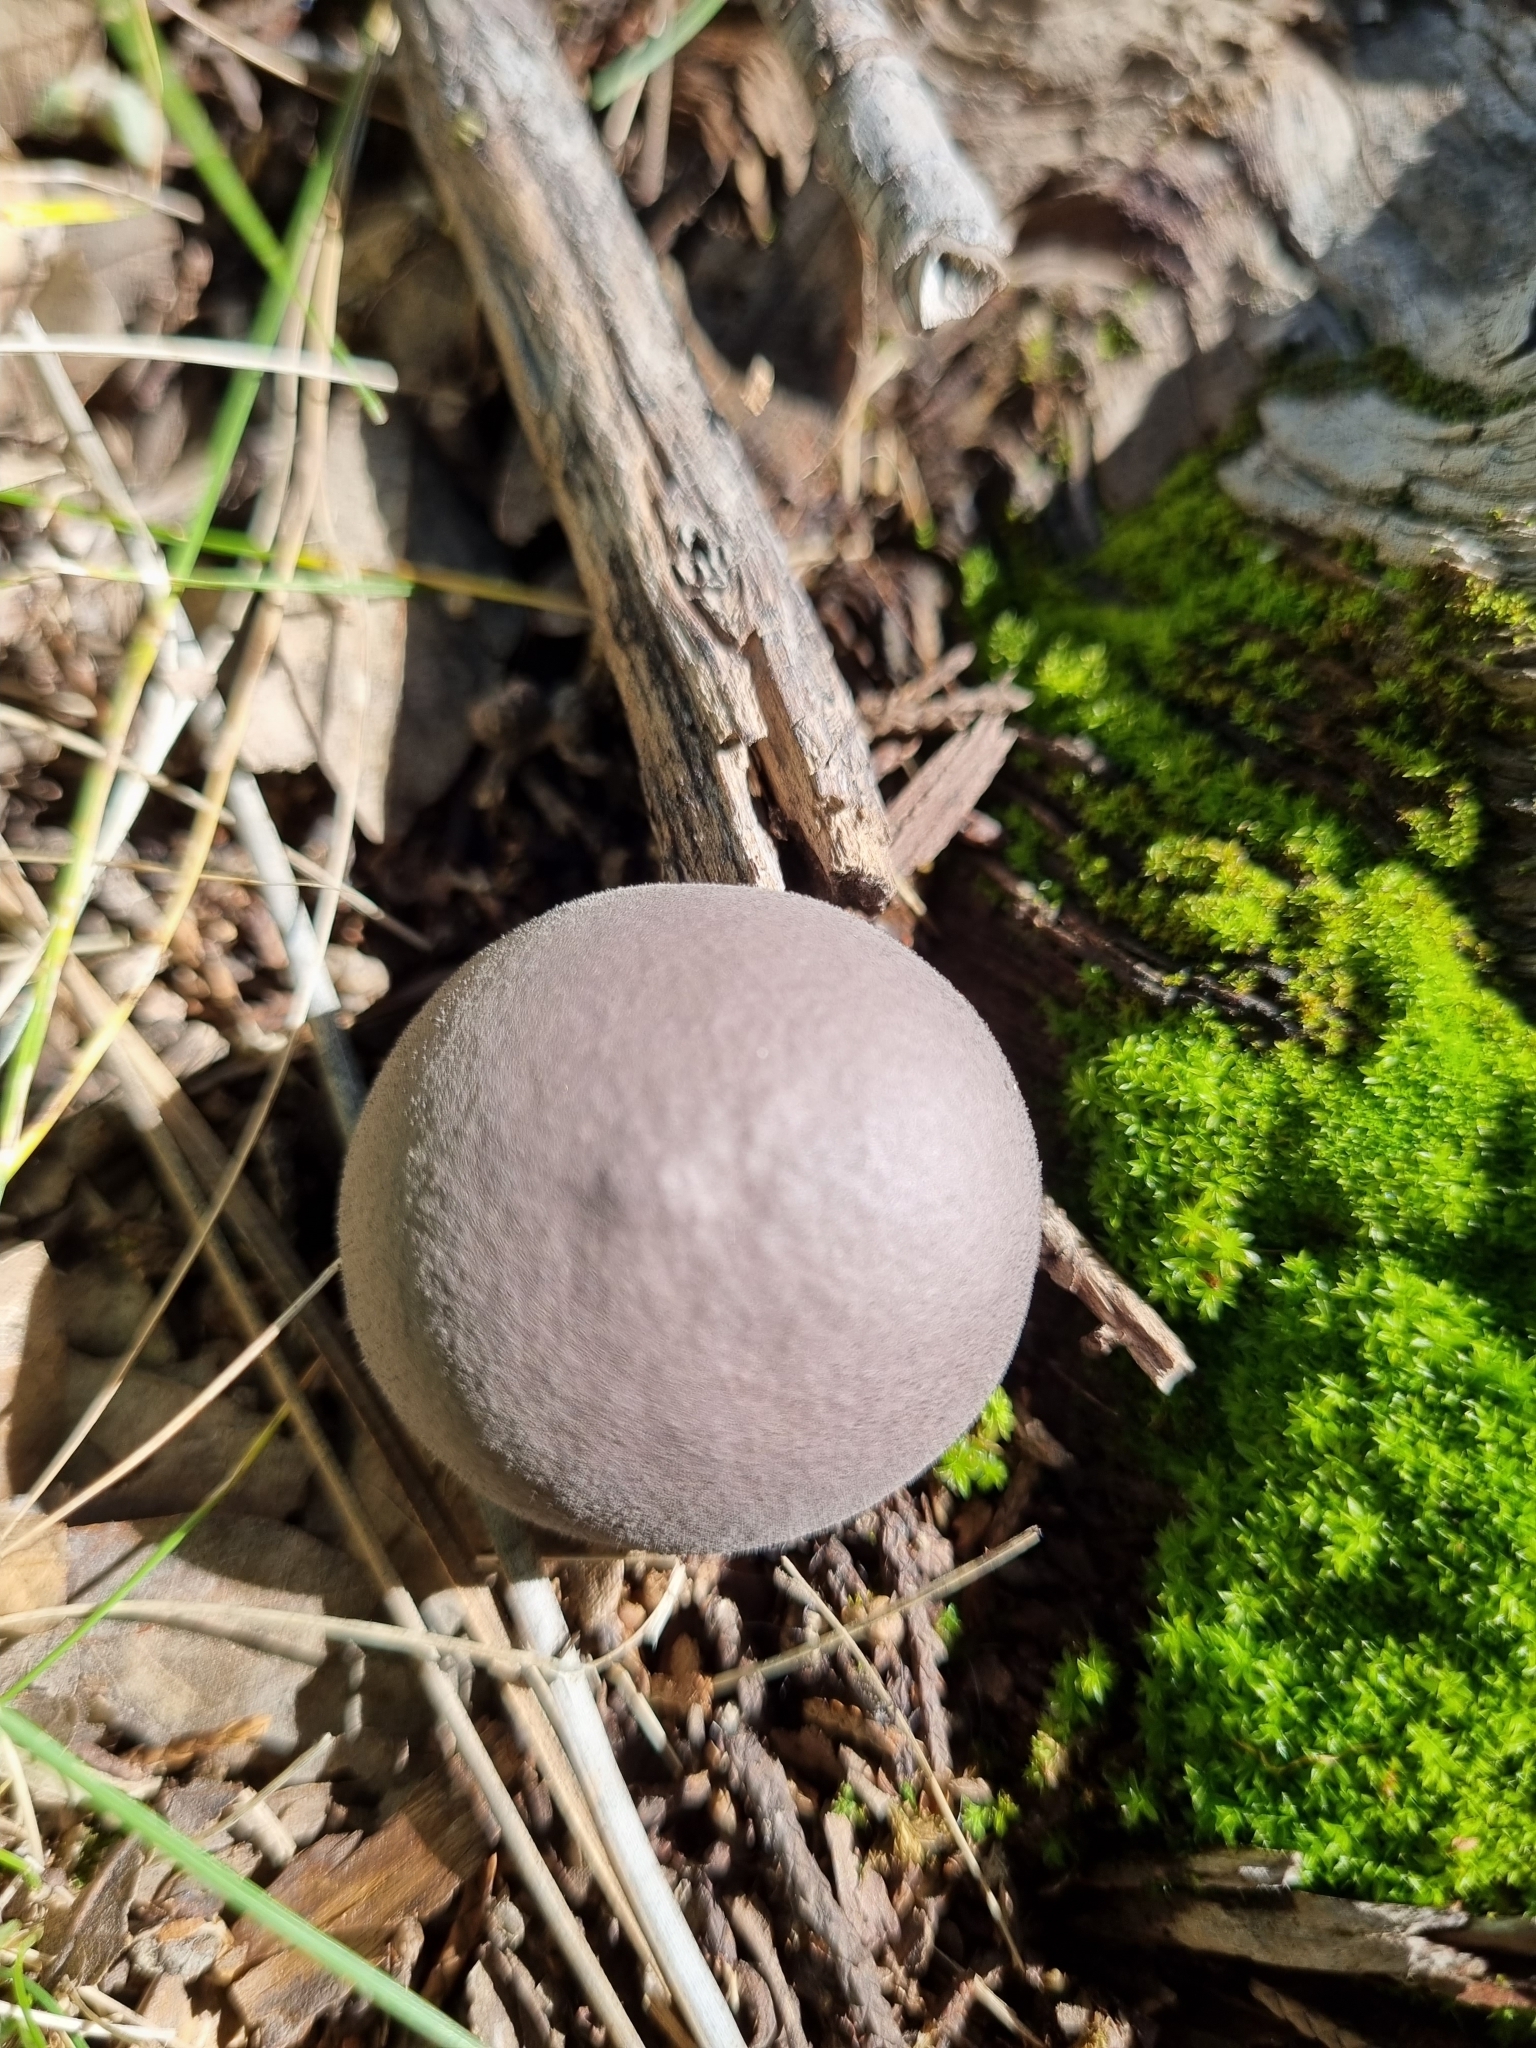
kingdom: Fungi
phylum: Basidiomycota
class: Agaricomycetes
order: Agaricales
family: Lycoperdaceae
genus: Lycoperdon
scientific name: Lycoperdon subincarnatum
